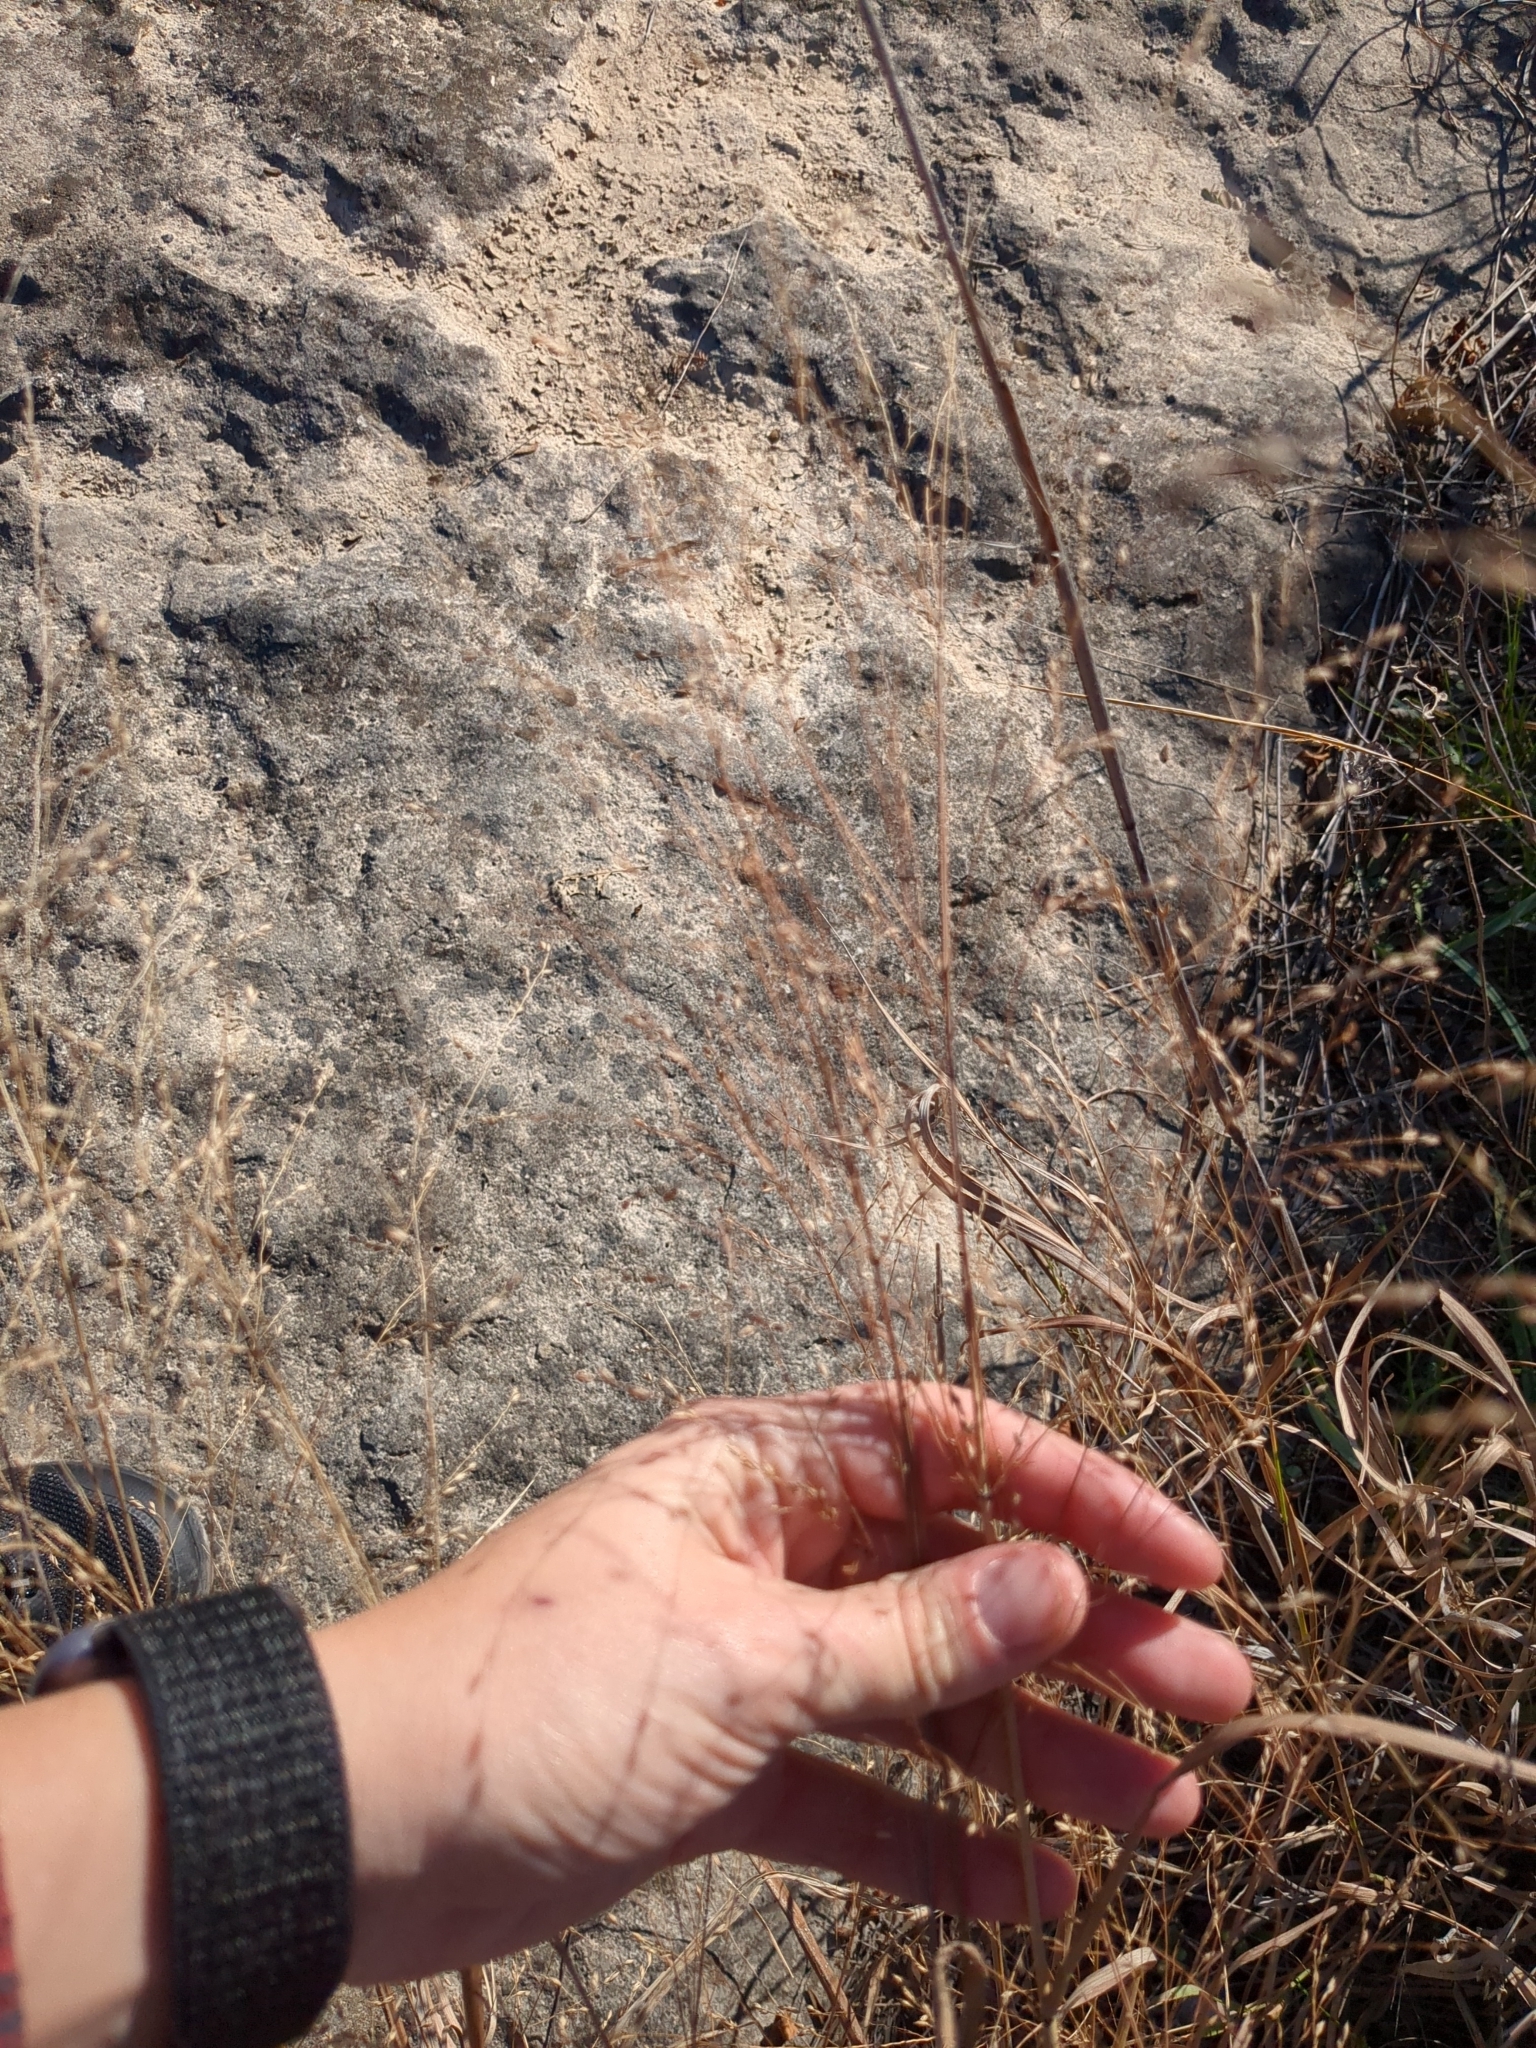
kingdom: Plantae
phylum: Tracheophyta
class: Liliopsida
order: Poales
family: Poaceae
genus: Panicum
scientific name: Panicum virgatum
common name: Switchgrass
